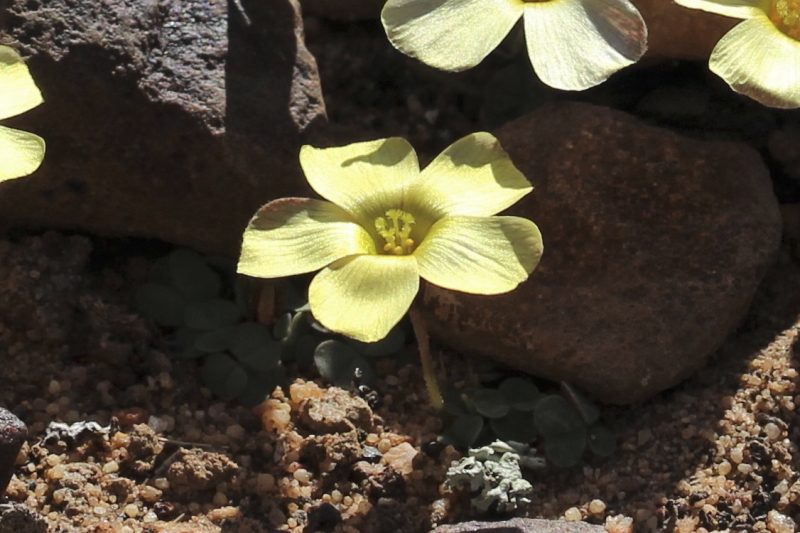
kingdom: Plantae
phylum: Tracheophyta
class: Magnoliopsida
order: Oxalidales
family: Oxalidaceae
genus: Oxalis
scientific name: Oxalis obtusa
